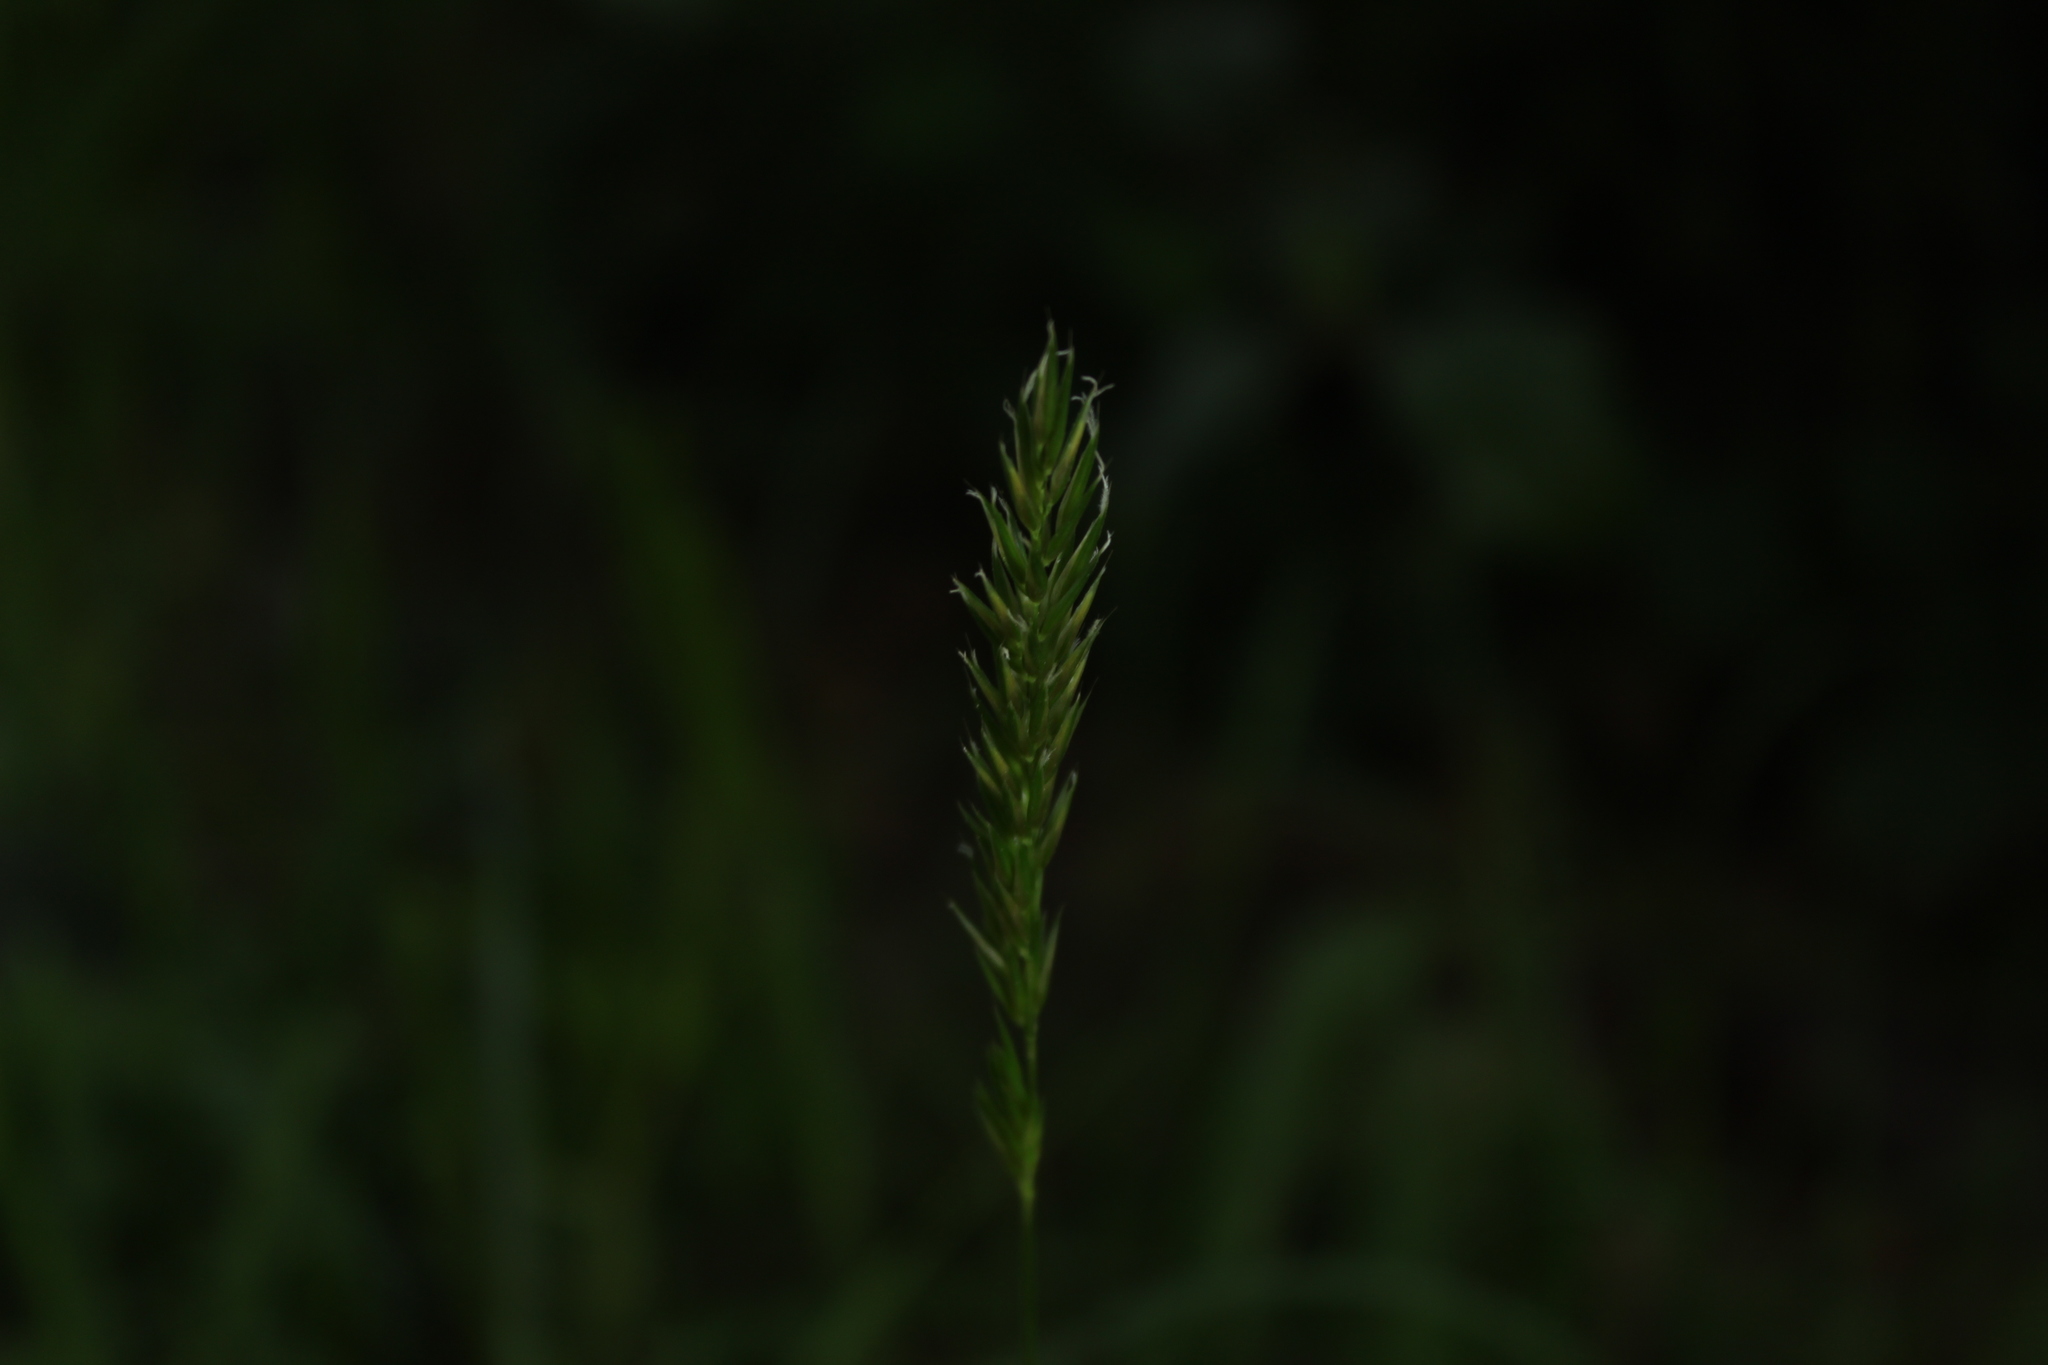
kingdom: Plantae
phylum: Tracheophyta
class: Liliopsida
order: Poales
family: Poaceae
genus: Anthoxanthum
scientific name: Anthoxanthum odoratum
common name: Sweet vernalgrass
